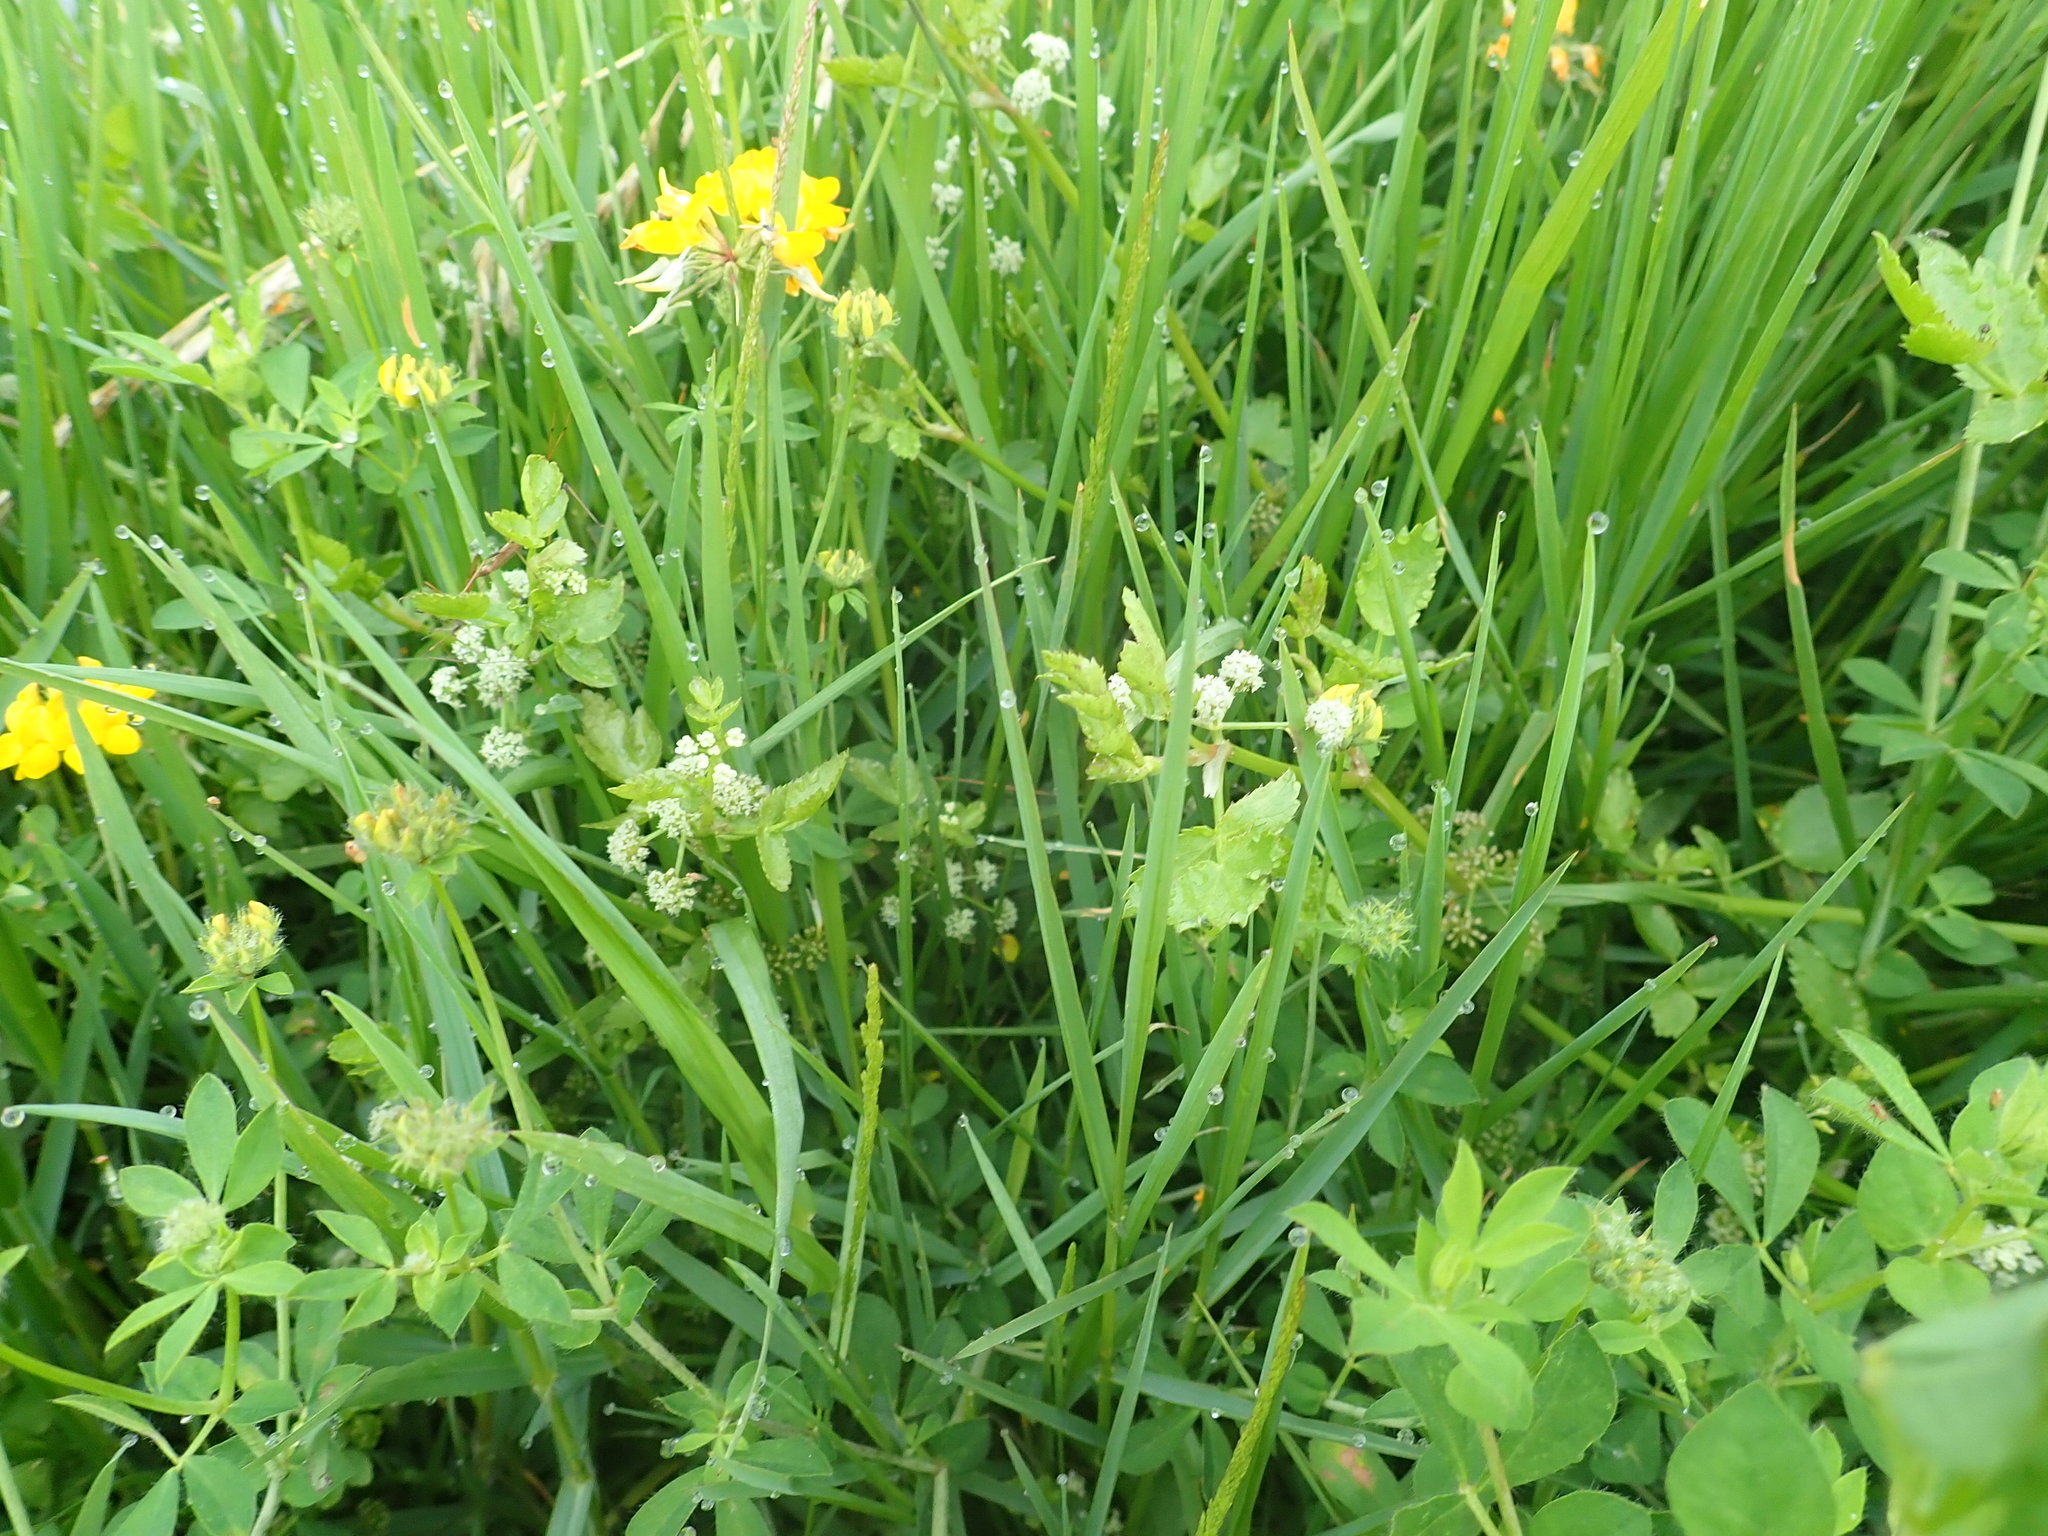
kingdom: Plantae
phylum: Tracheophyta
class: Magnoliopsida
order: Apiales
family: Apiaceae
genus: Helosciadium
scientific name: Helosciadium nodiflorum
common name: Fool's-watercress
